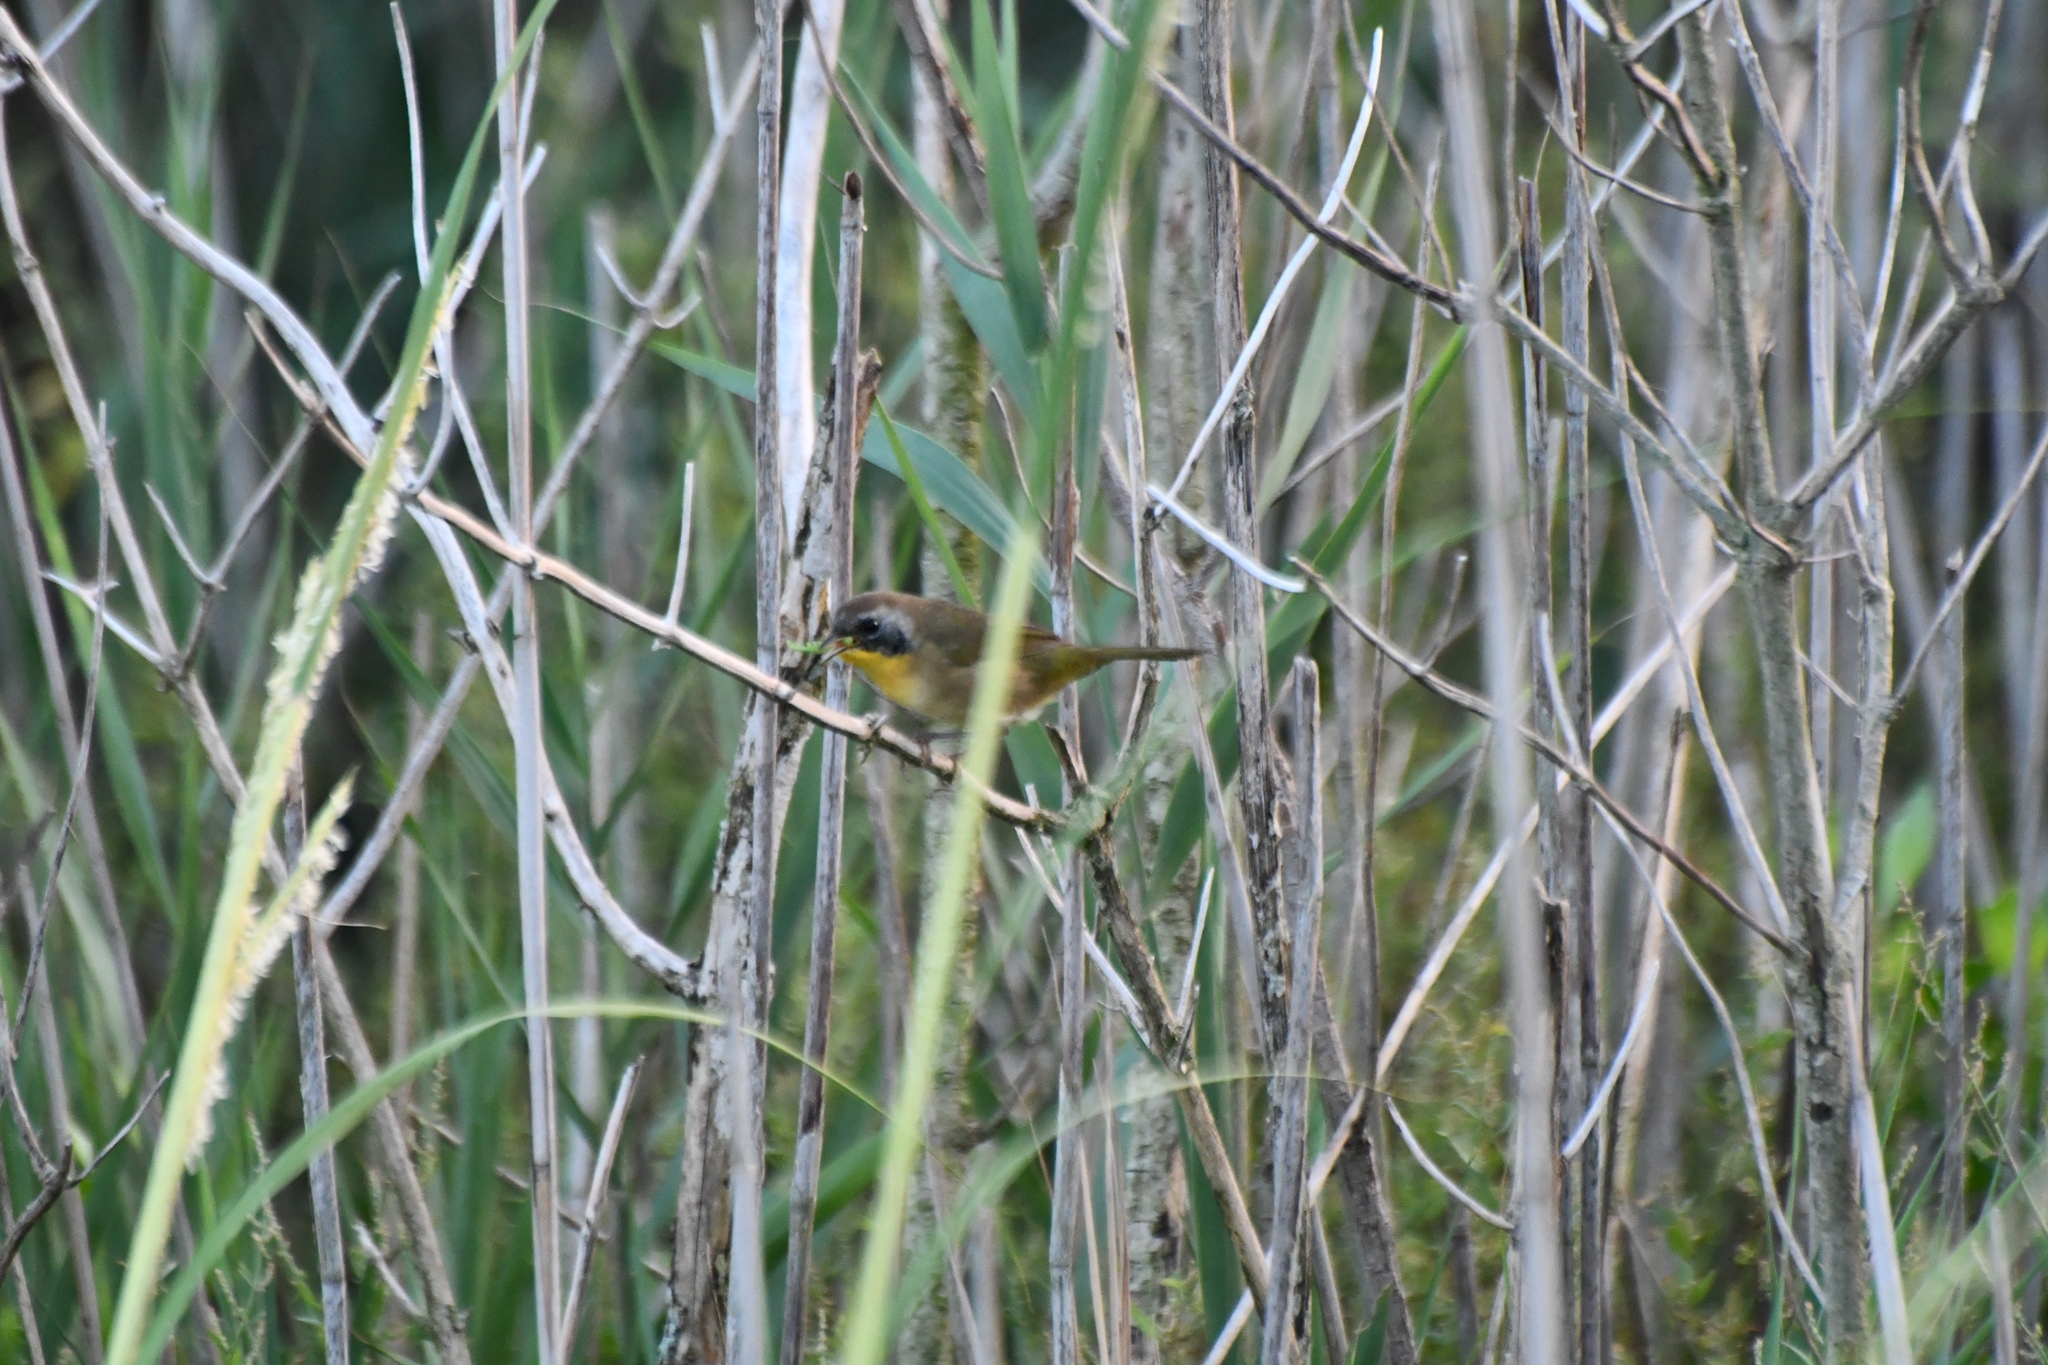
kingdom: Animalia
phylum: Chordata
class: Aves
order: Passeriformes
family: Parulidae
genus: Geothlypis
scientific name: Geothlypis trichas
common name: Common yellowthroat
